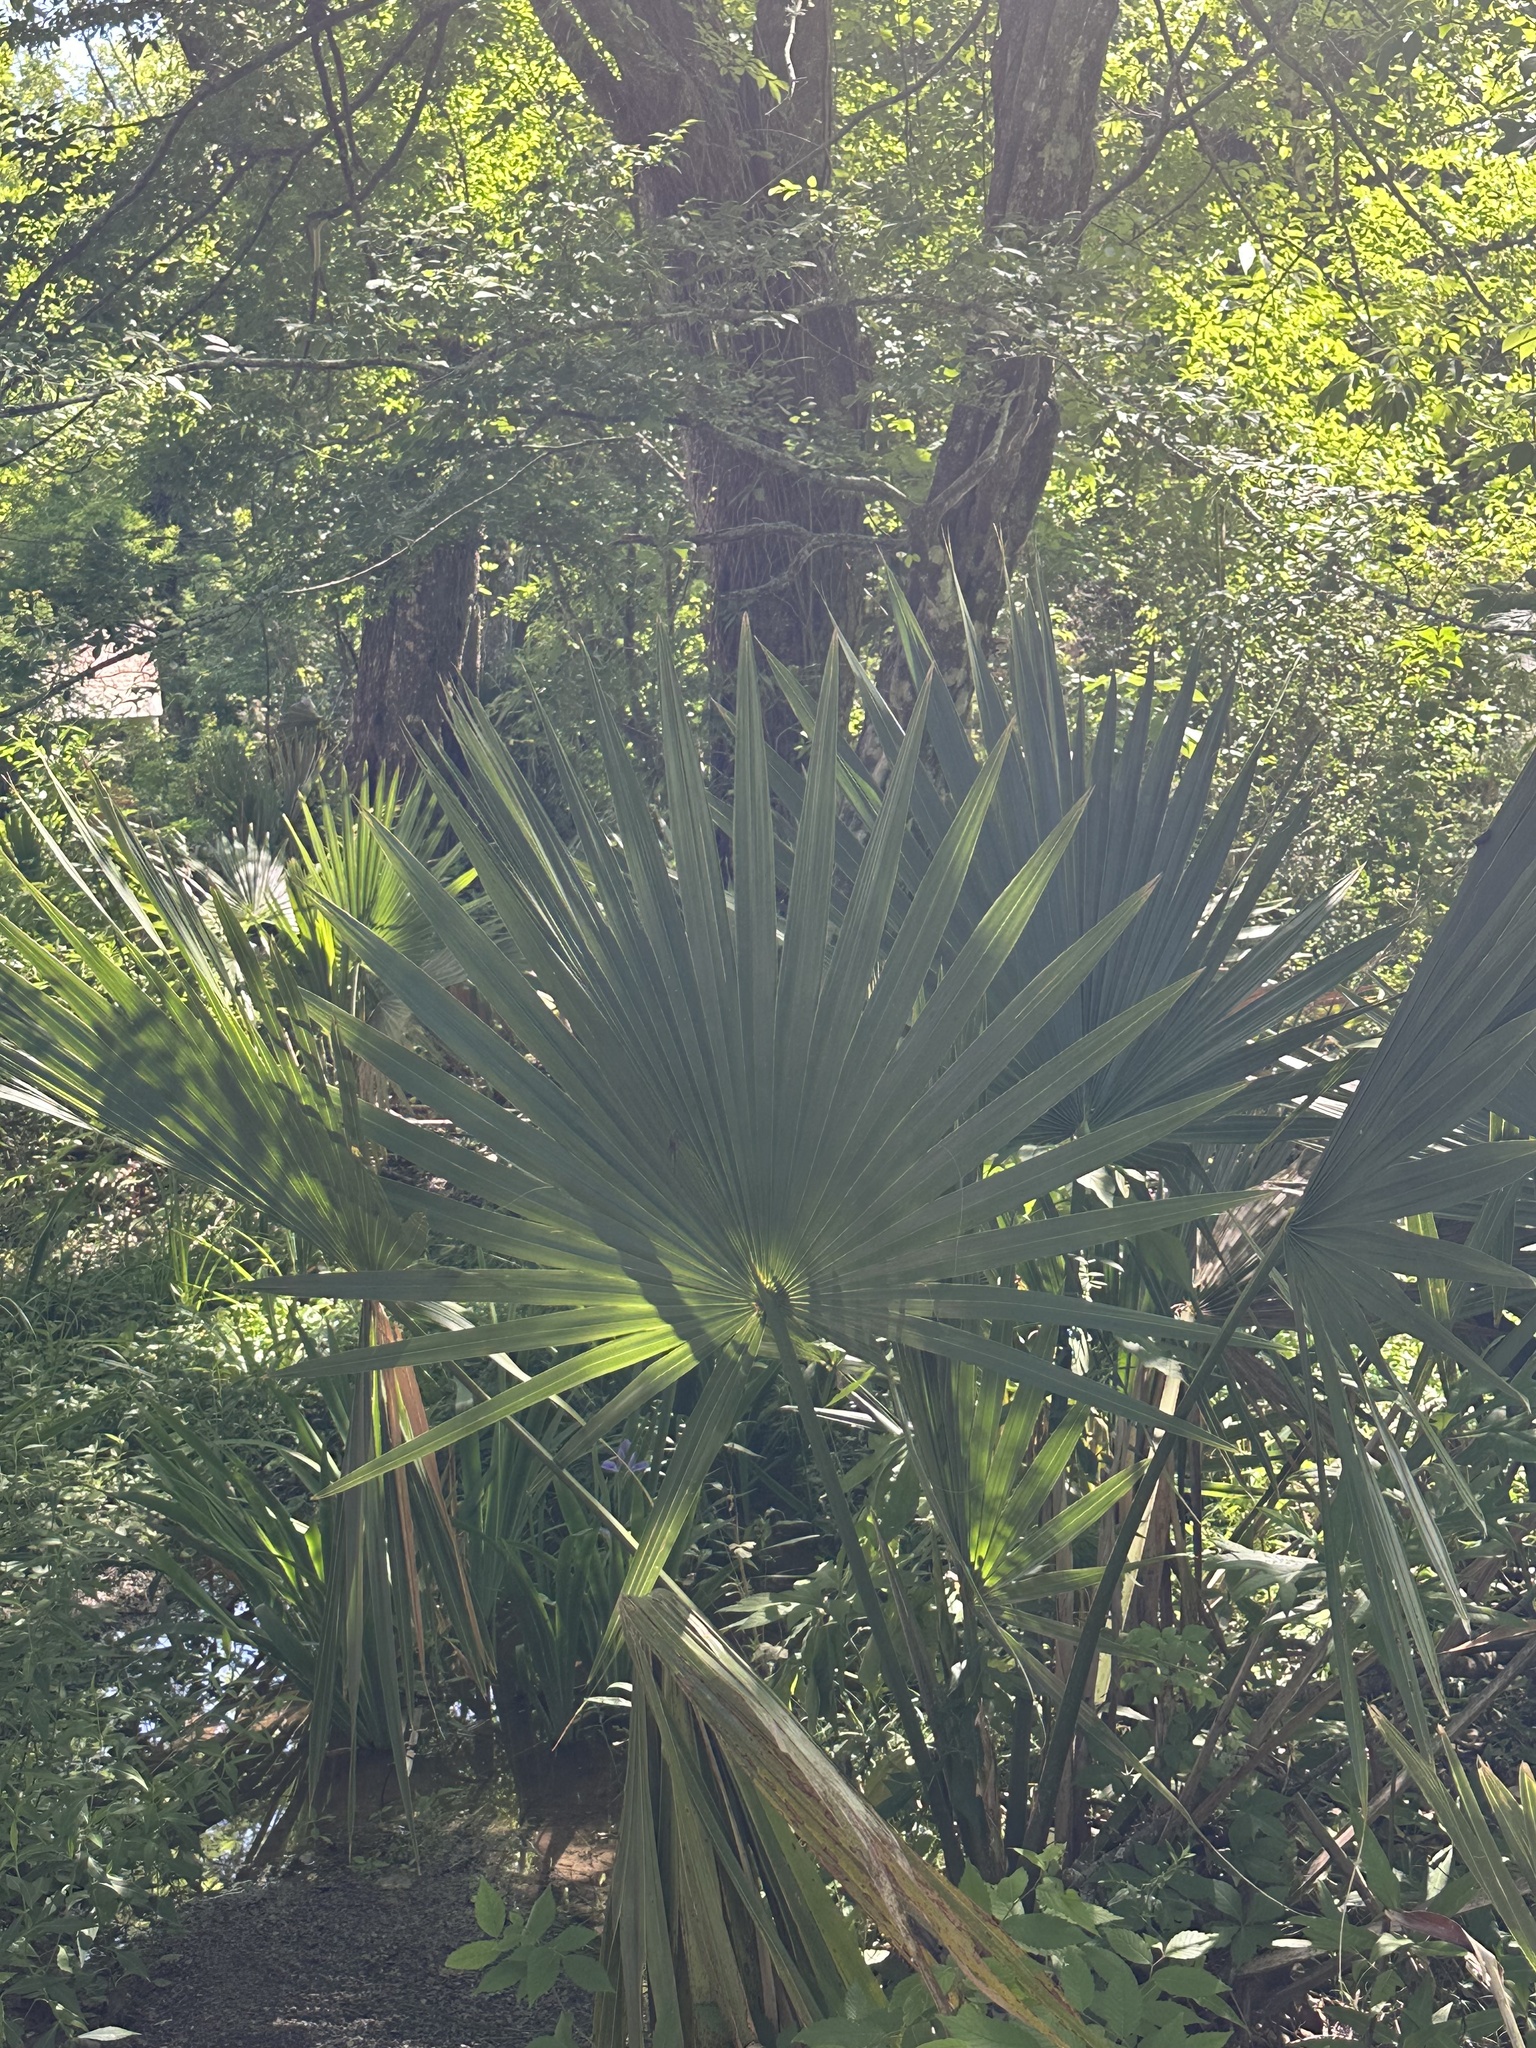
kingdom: Plantae
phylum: Tracheophyta
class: Liliopsida
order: Arecales
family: Arecaceae
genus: Sabal
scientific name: Sabal minor
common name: Dwarf palmetto
